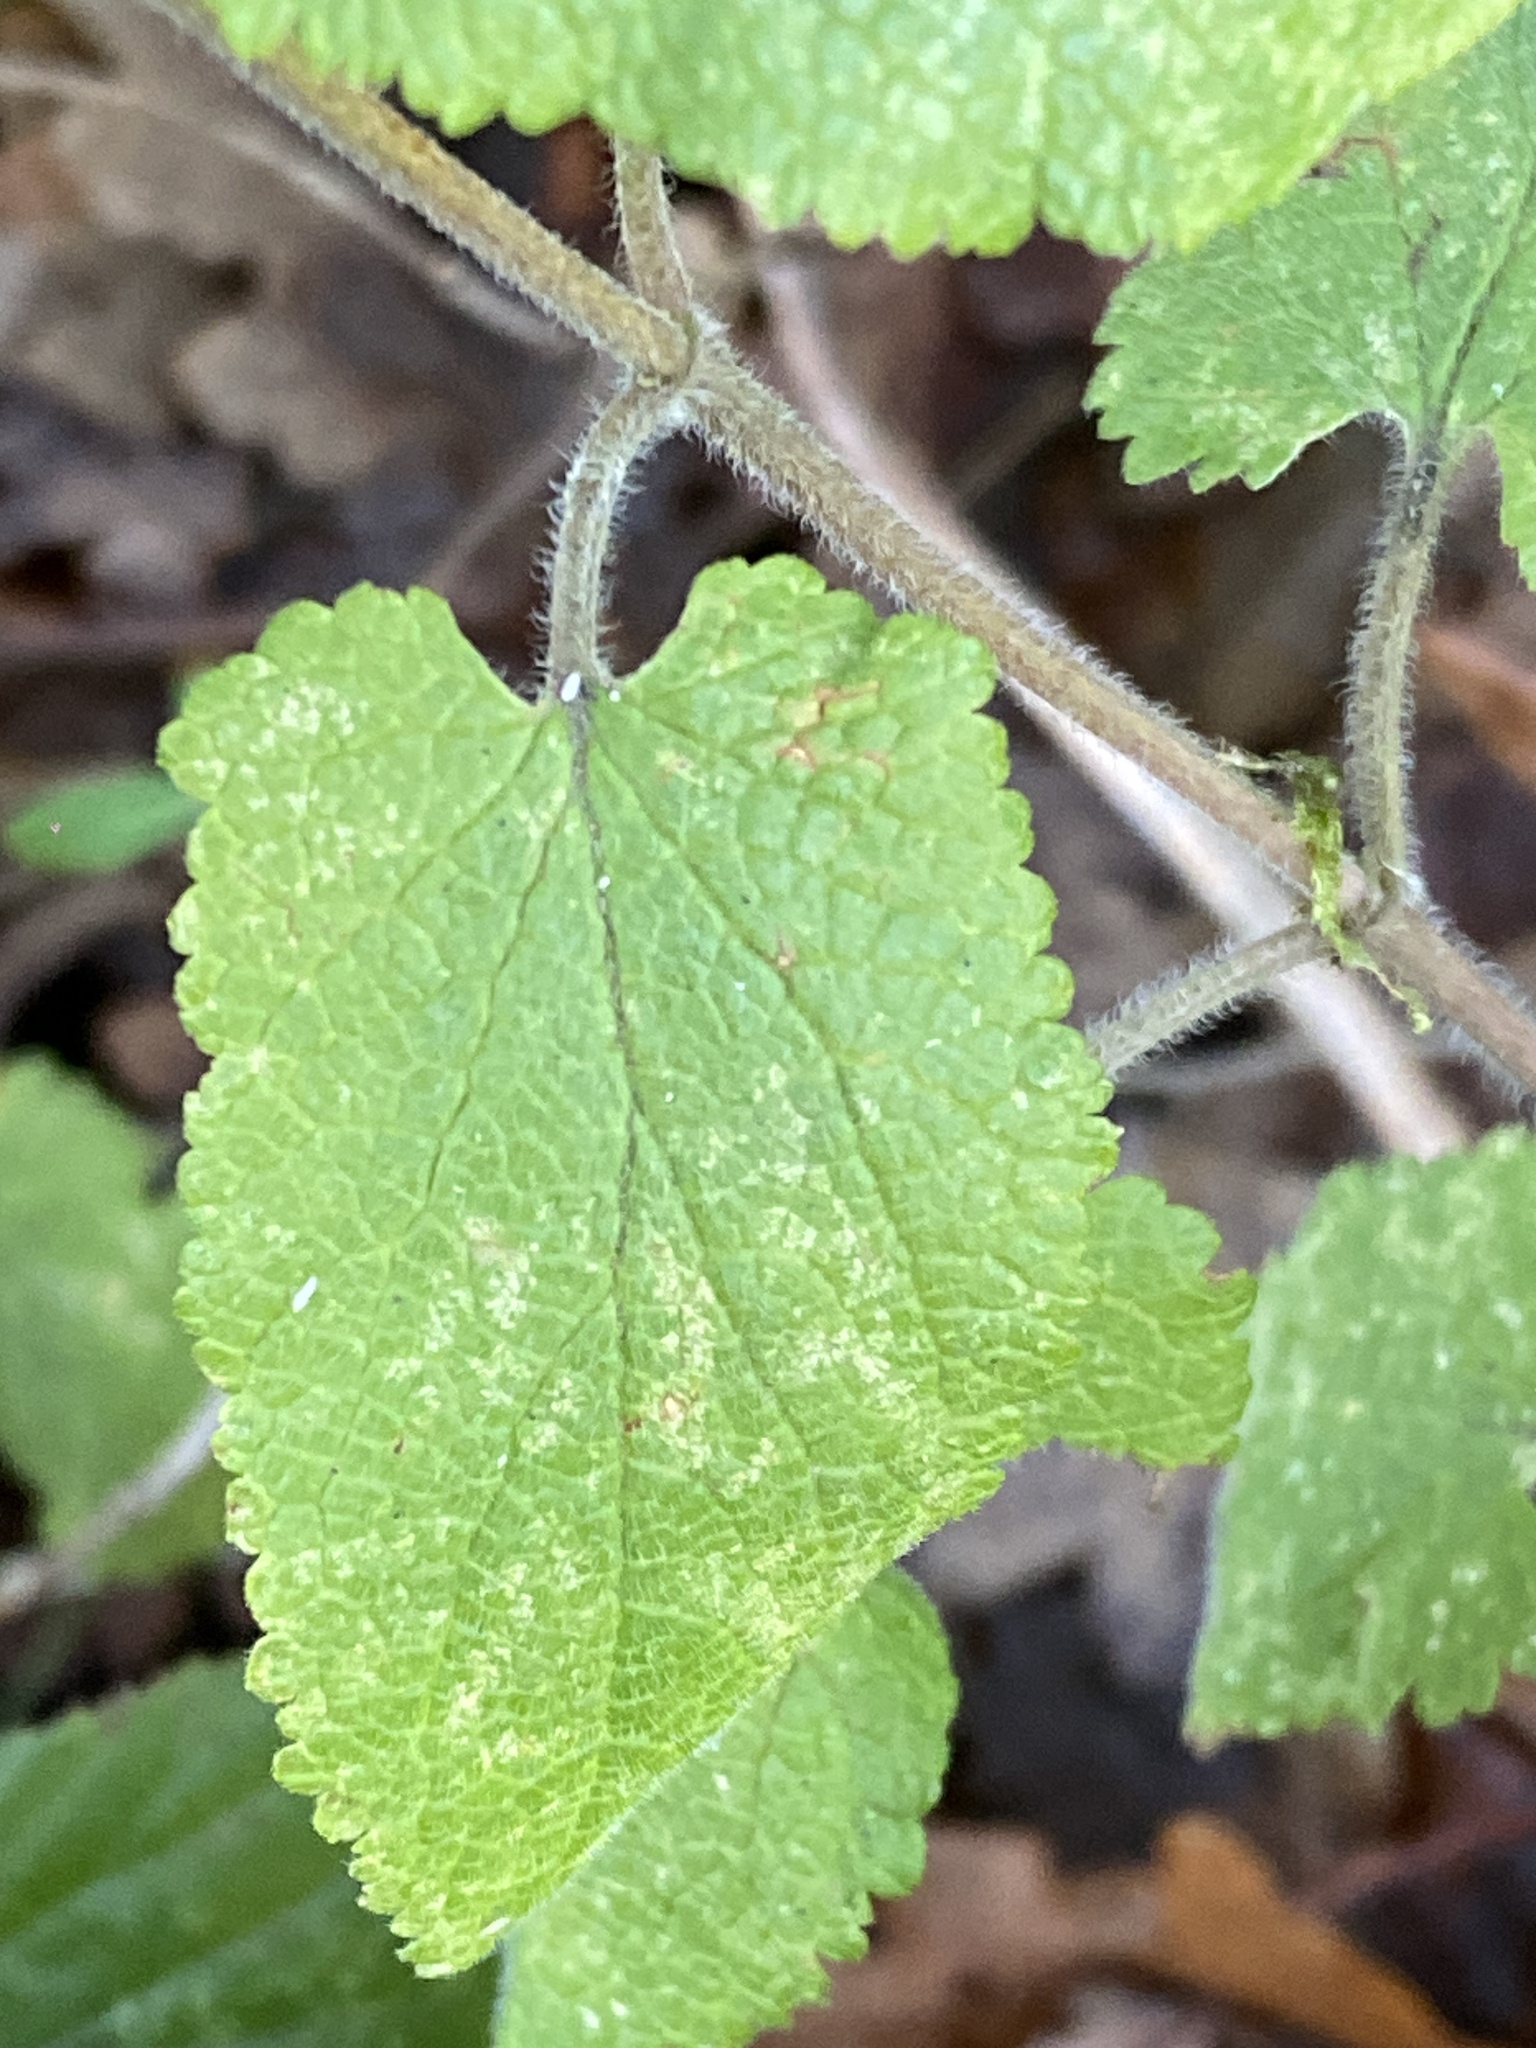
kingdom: Plantae
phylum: Tracheophyta
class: Magnoliopsida
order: Lamiales
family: Lamiaceae
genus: Teucrium
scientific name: Teucrium scorodonia
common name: Woodland germander
